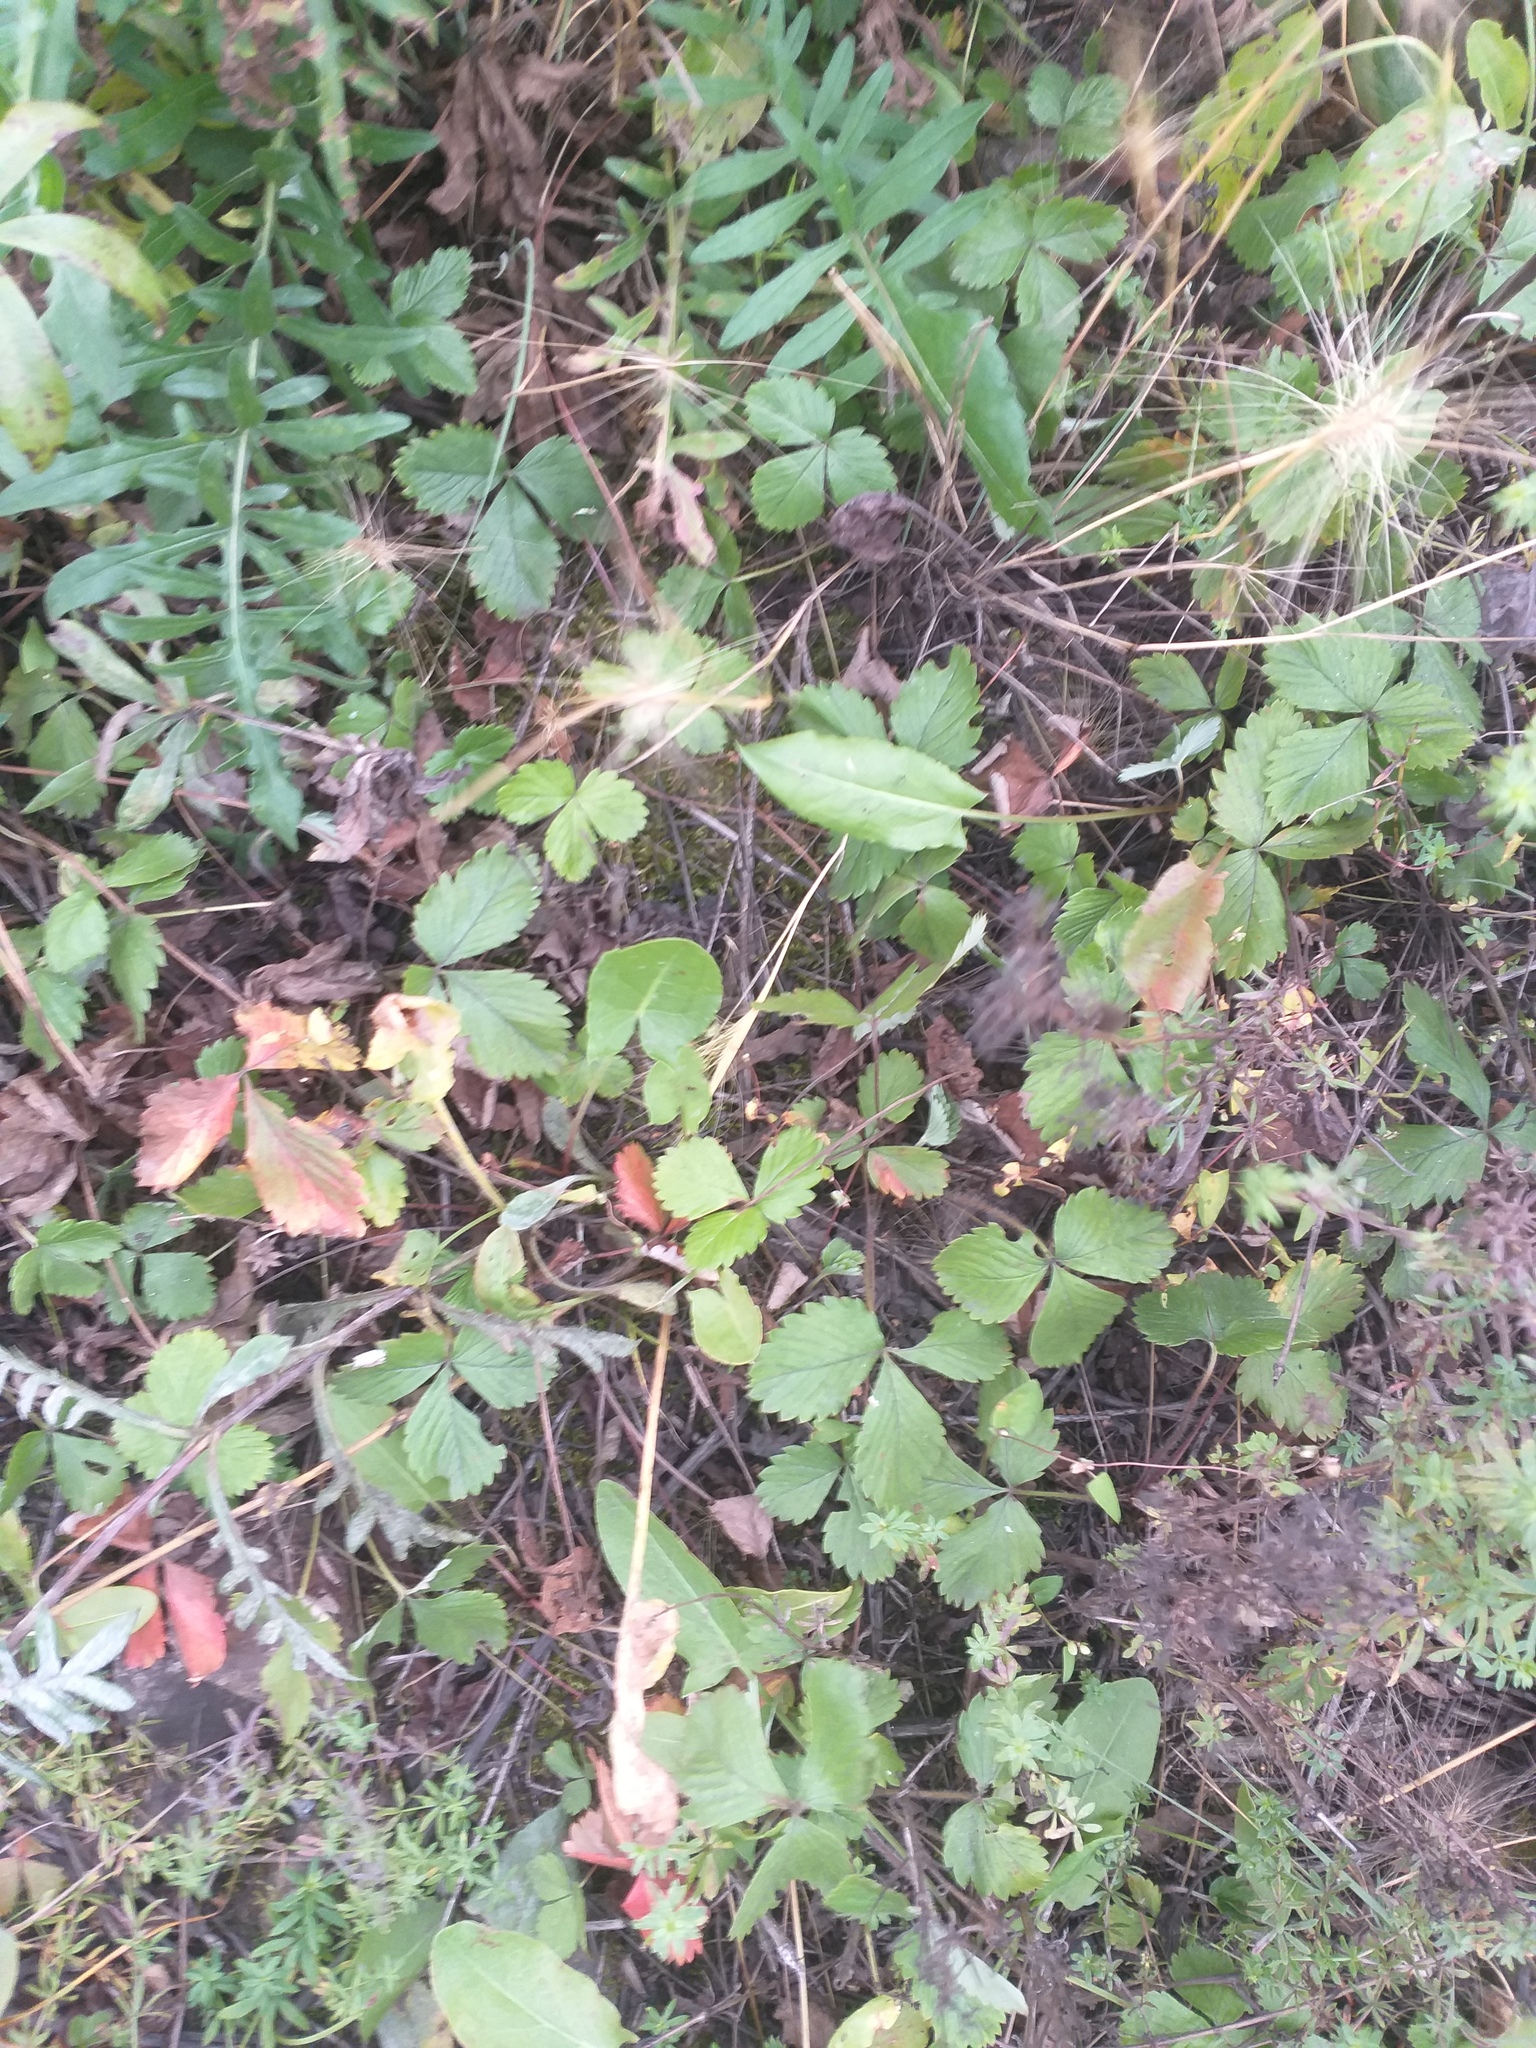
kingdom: Plantae
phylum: Tracheophyta
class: Magnoliopsida
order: Rosales
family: Rosaceae
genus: Fragaria
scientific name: Fragaria vesca
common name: Wild strawberry
